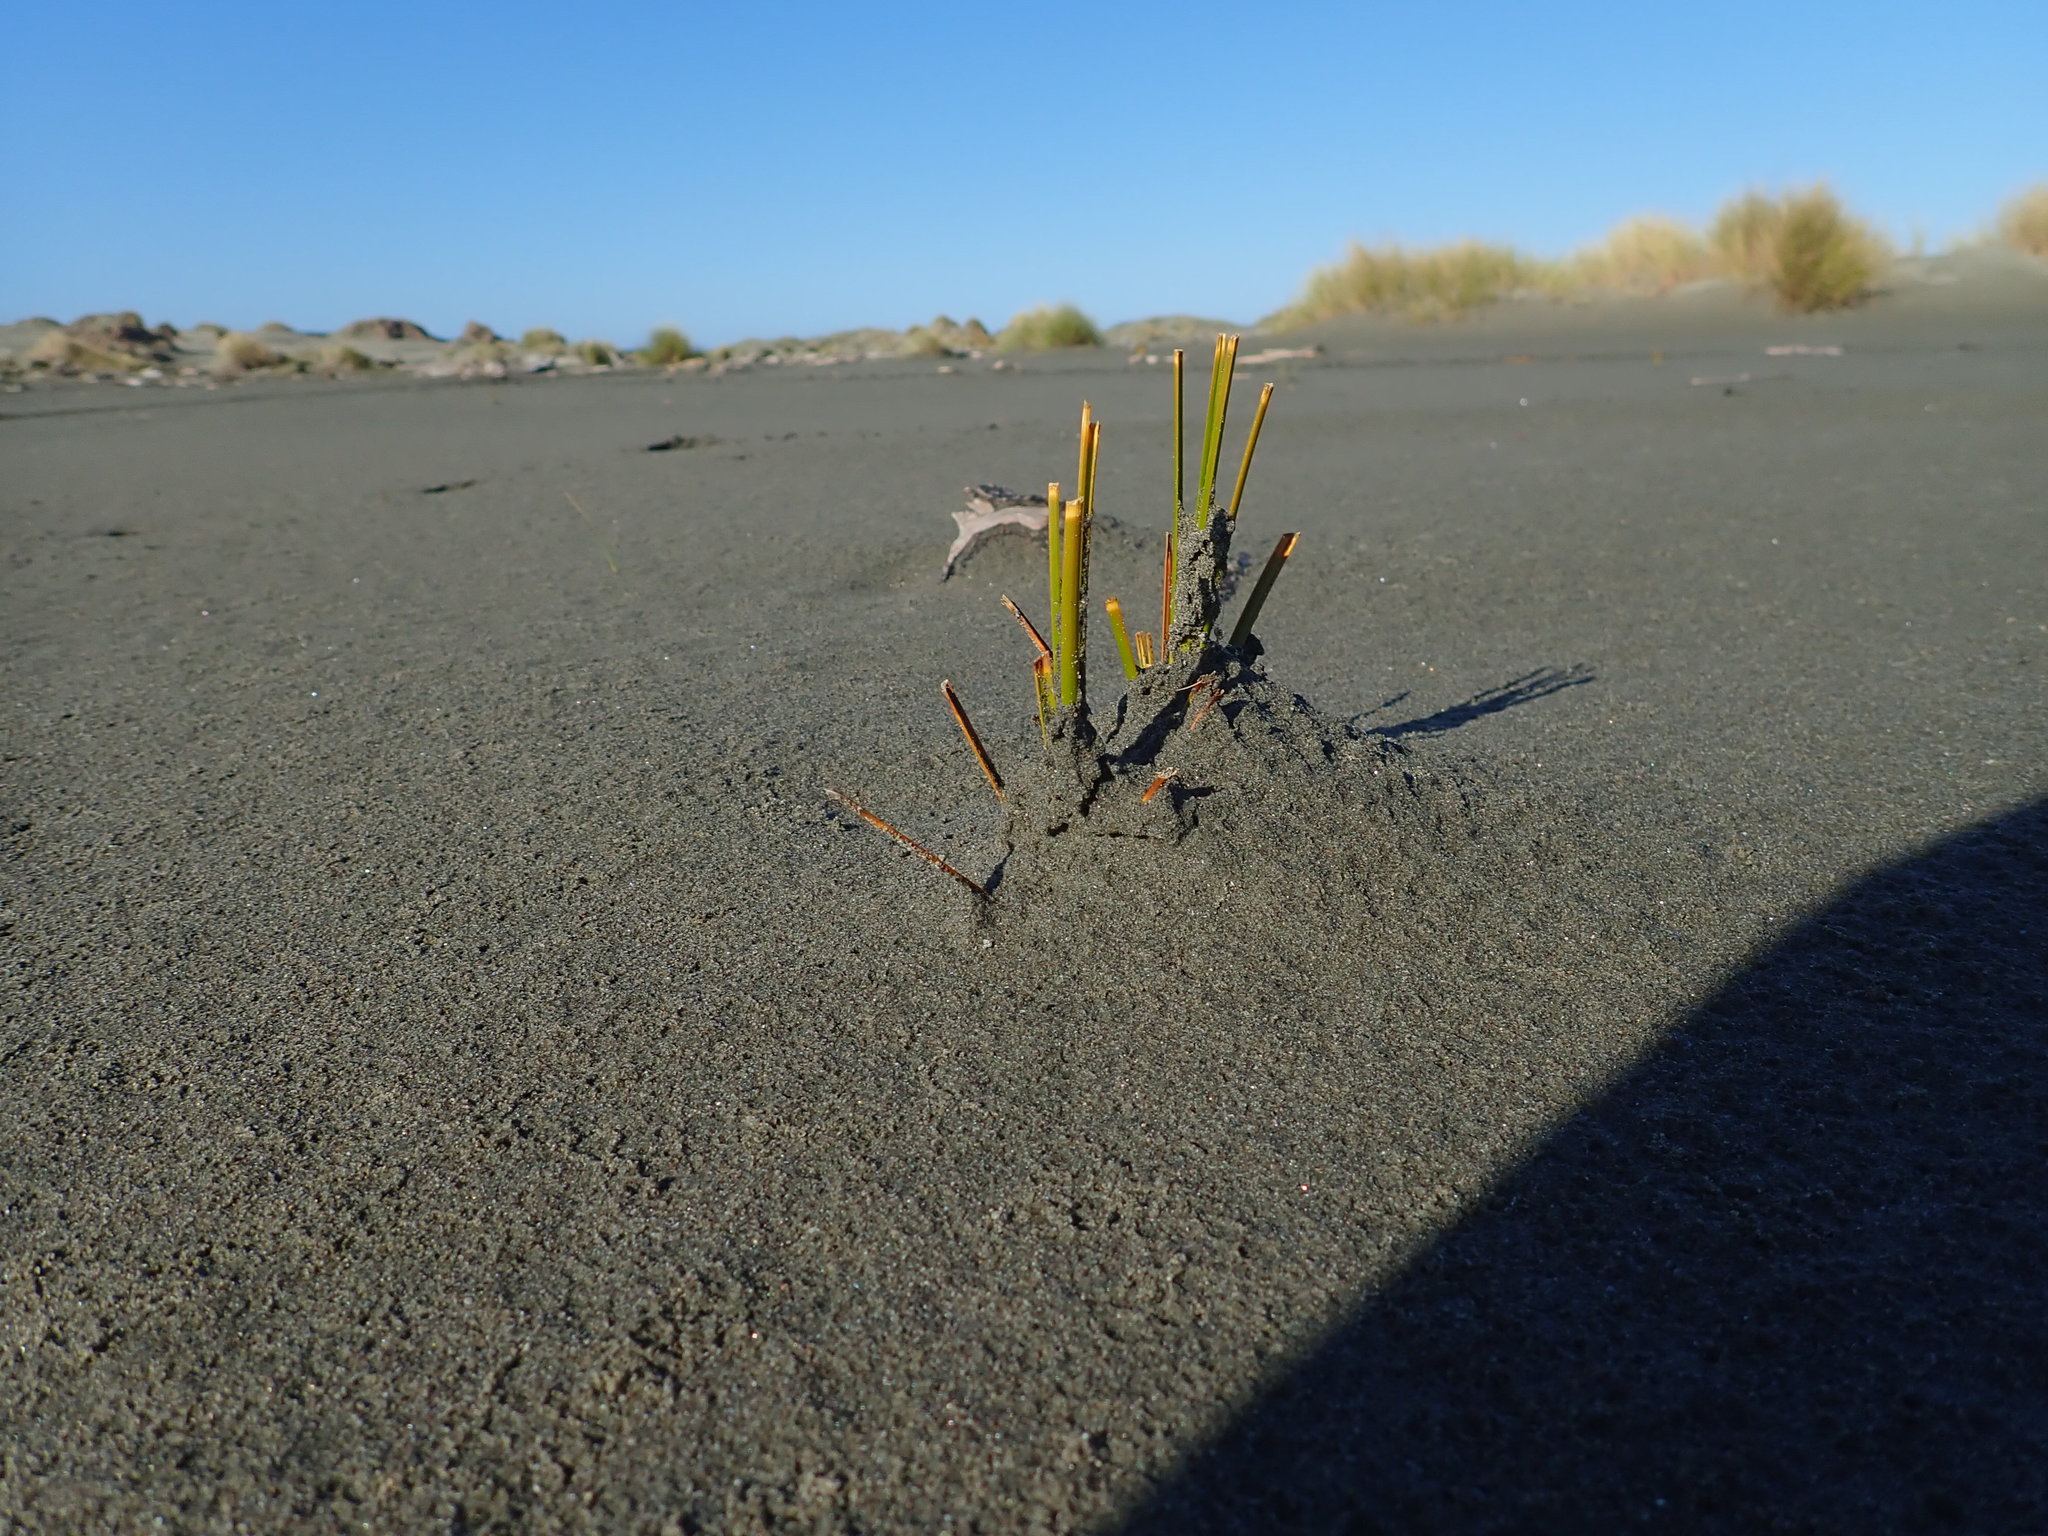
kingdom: Plantae
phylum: Tracheophyta
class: Liliopsida
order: Poales
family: Cyperaceae
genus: Ficinia
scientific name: Ficinia spiralis
